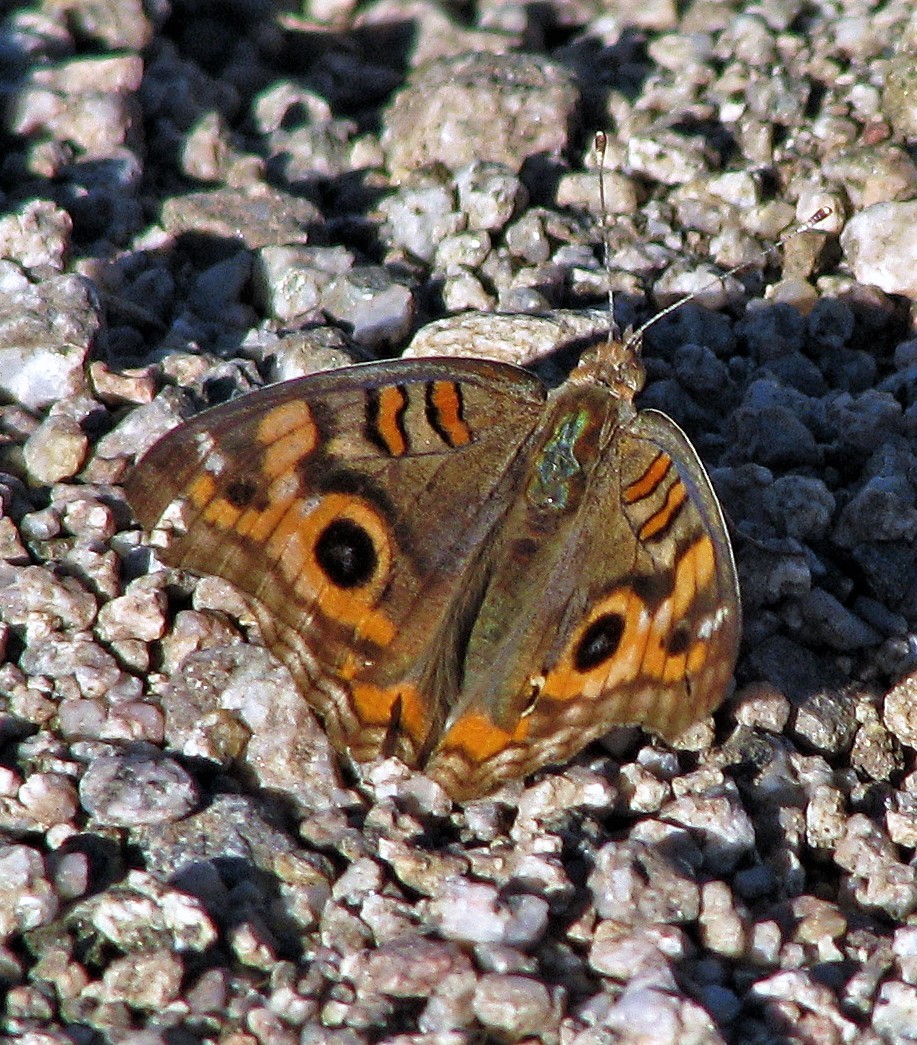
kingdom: Animalia
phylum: Arthropoda
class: Insecta
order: Lepidoptera
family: Nymphalidae
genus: Junonia
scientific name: Junonia lavinia
